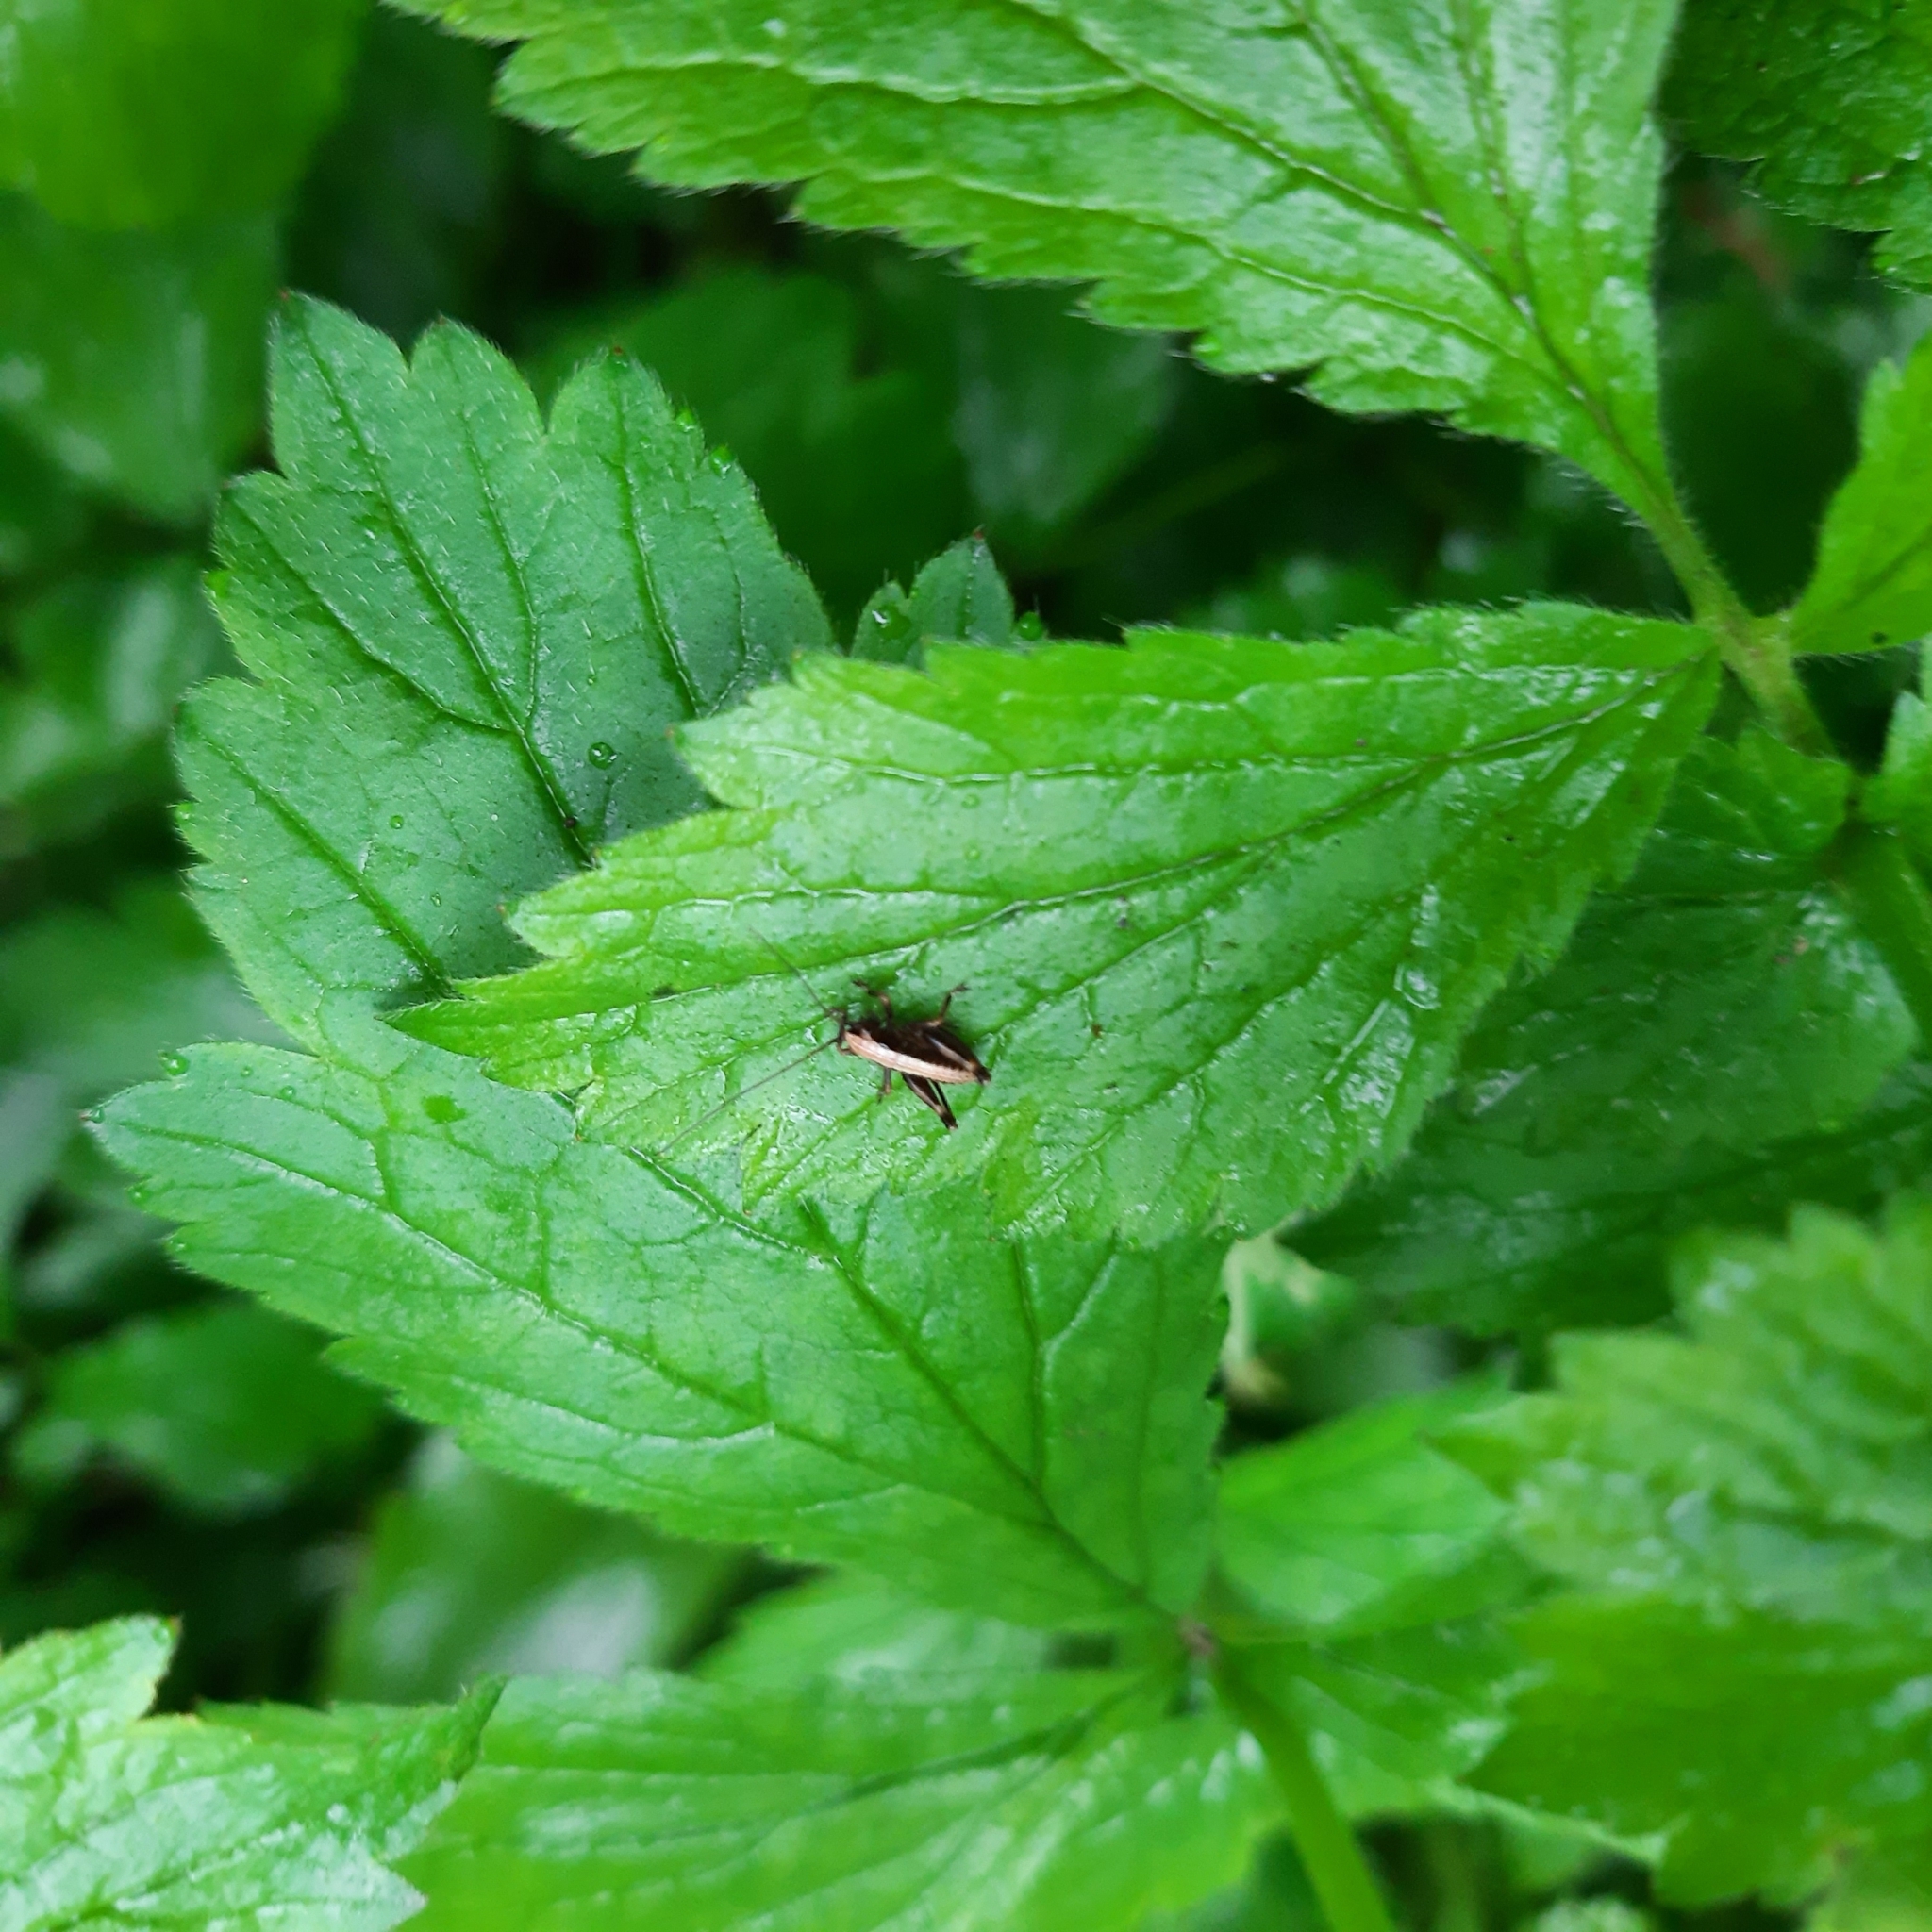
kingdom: Animalia
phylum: Arthropoda
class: Insecta
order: Orthoptera
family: Tettigoniidae
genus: Pholidoptera
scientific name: Pholidoptera griseoaptera
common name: Dark bush-cricket
